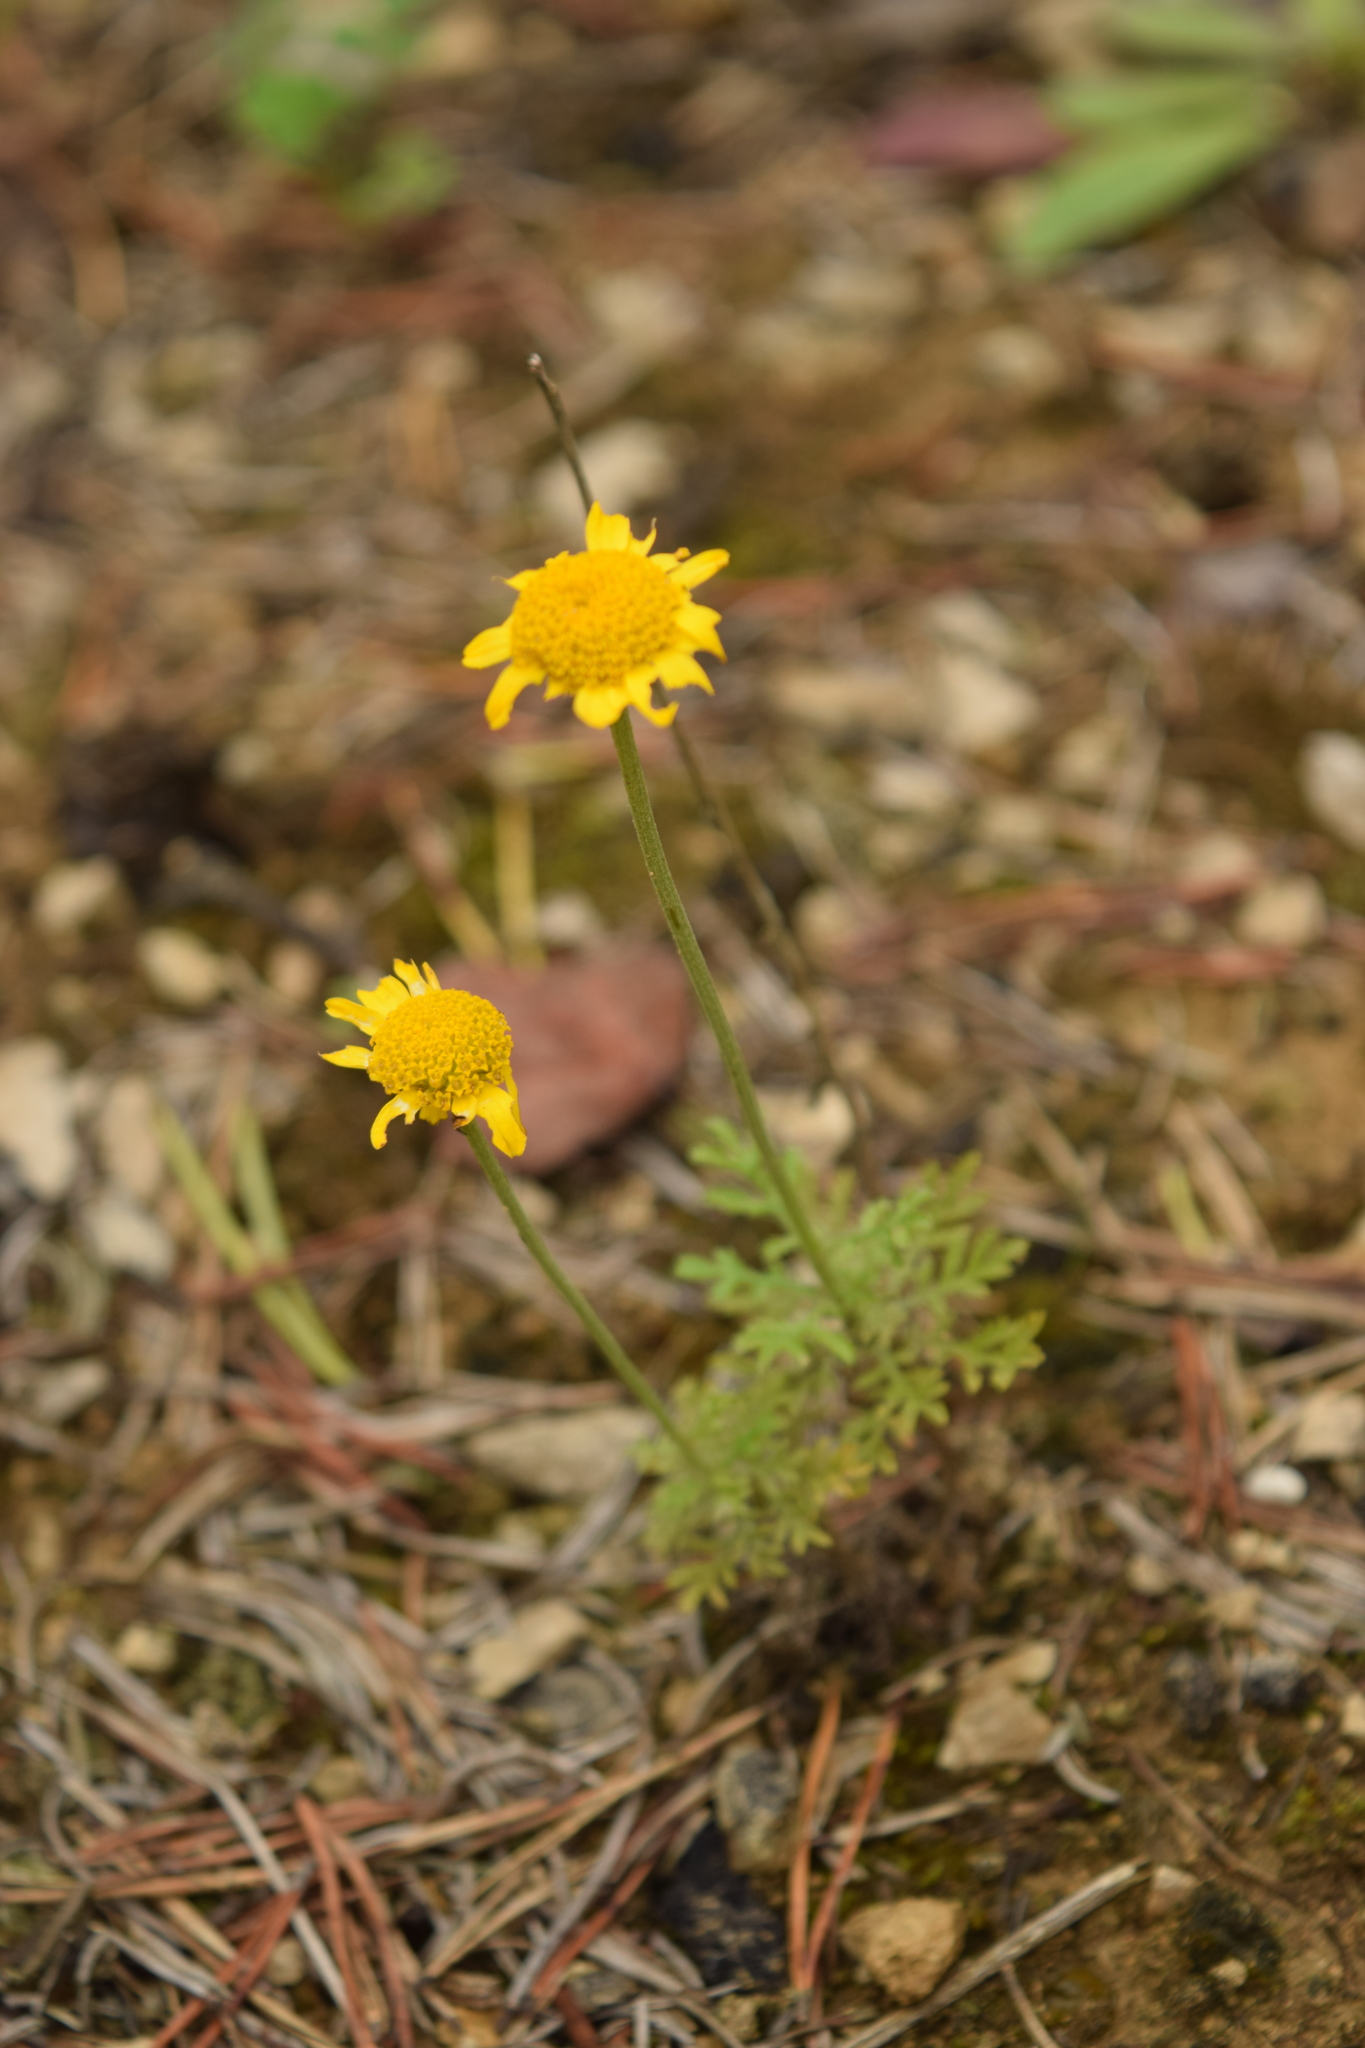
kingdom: Plantae
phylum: Tracheophyta
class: Magnoliopsida
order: Asterales
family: Asteraceae
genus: Cota
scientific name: Cota tinctoria
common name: Golden chamomile
